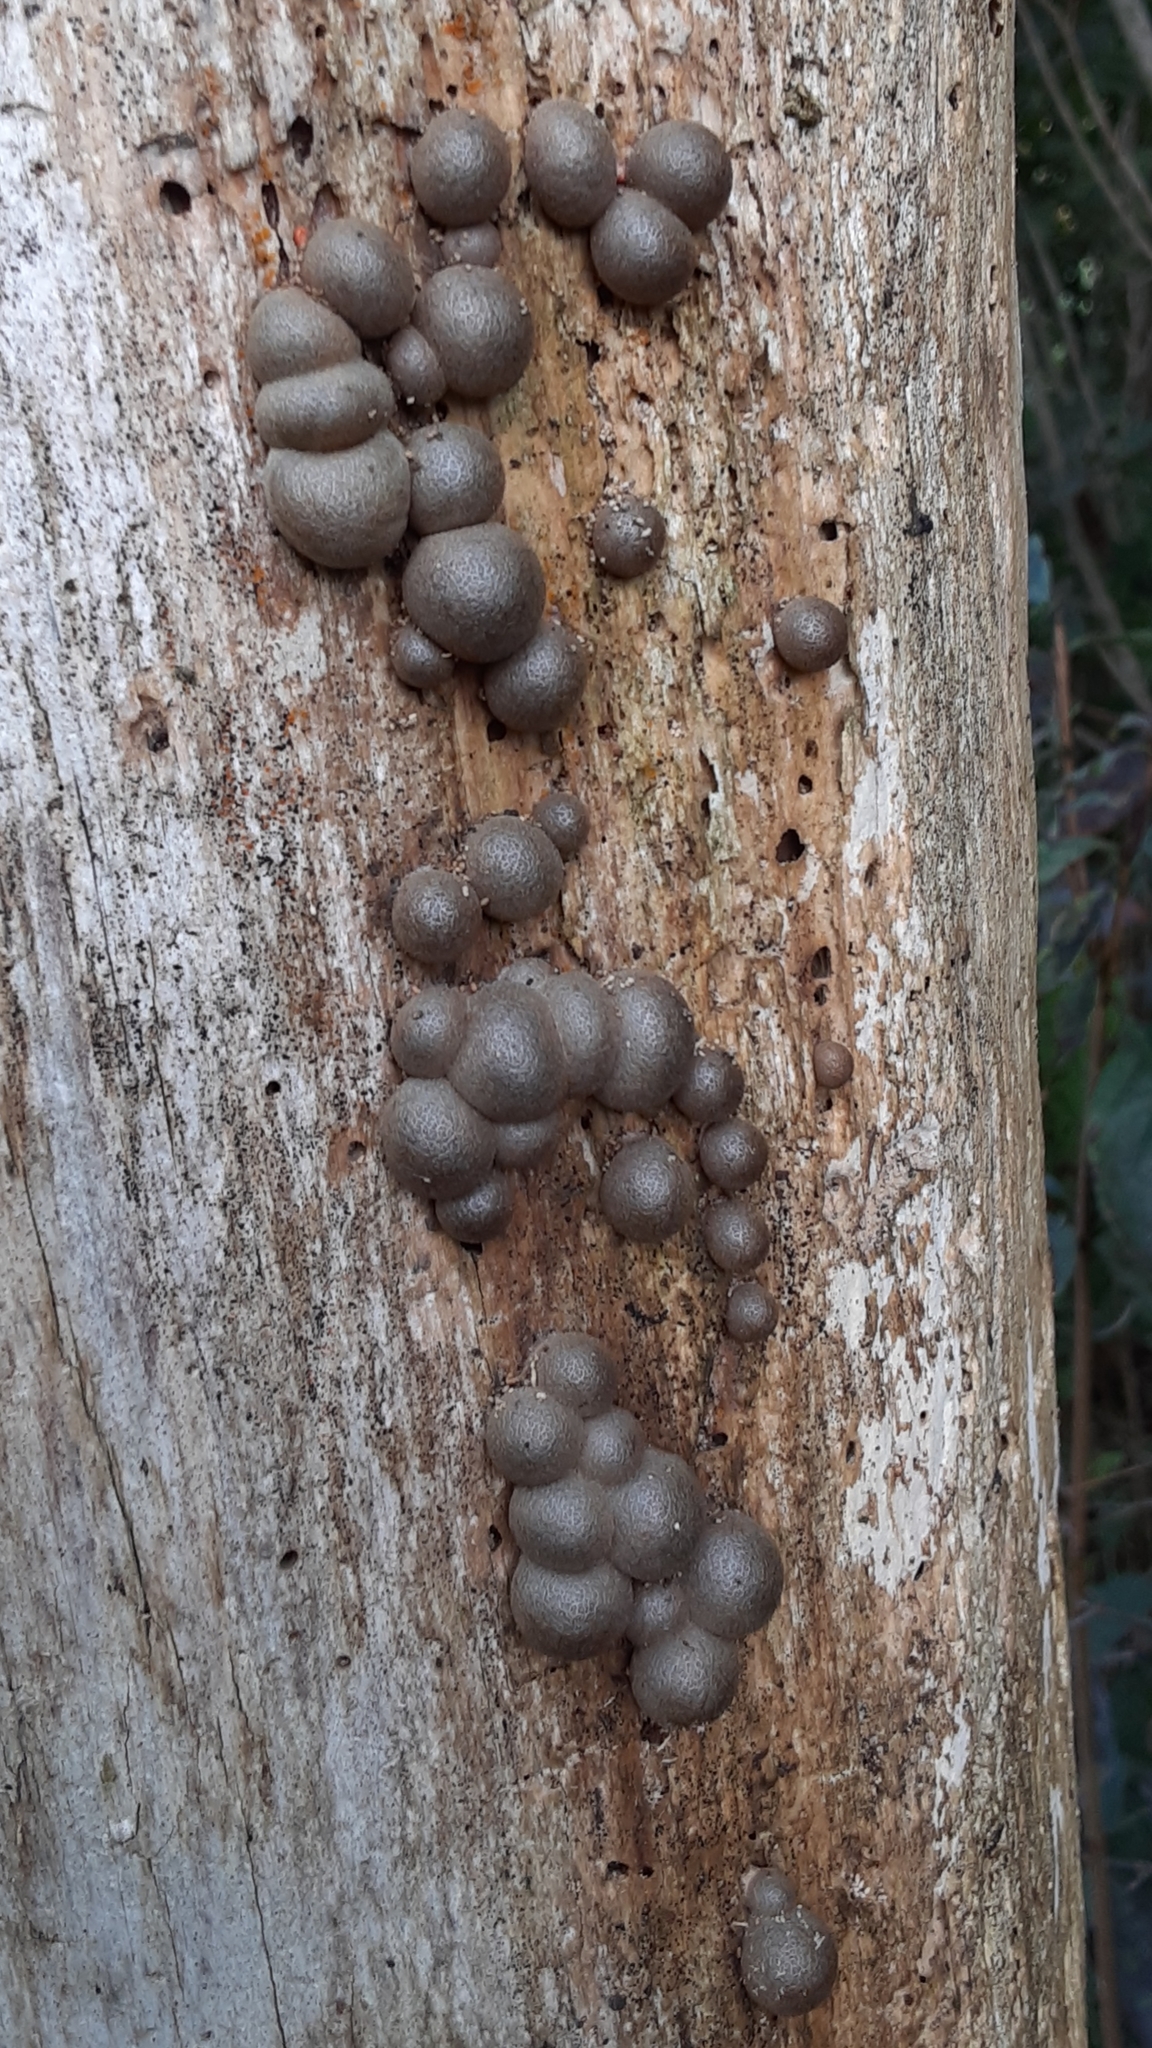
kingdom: Protozoa
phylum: Mycetozoa
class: Myxomycetes
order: Cribrariales
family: Tubiferaceae
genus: Lycogala
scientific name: Lycogala epidendrum
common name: Wolf's milk
